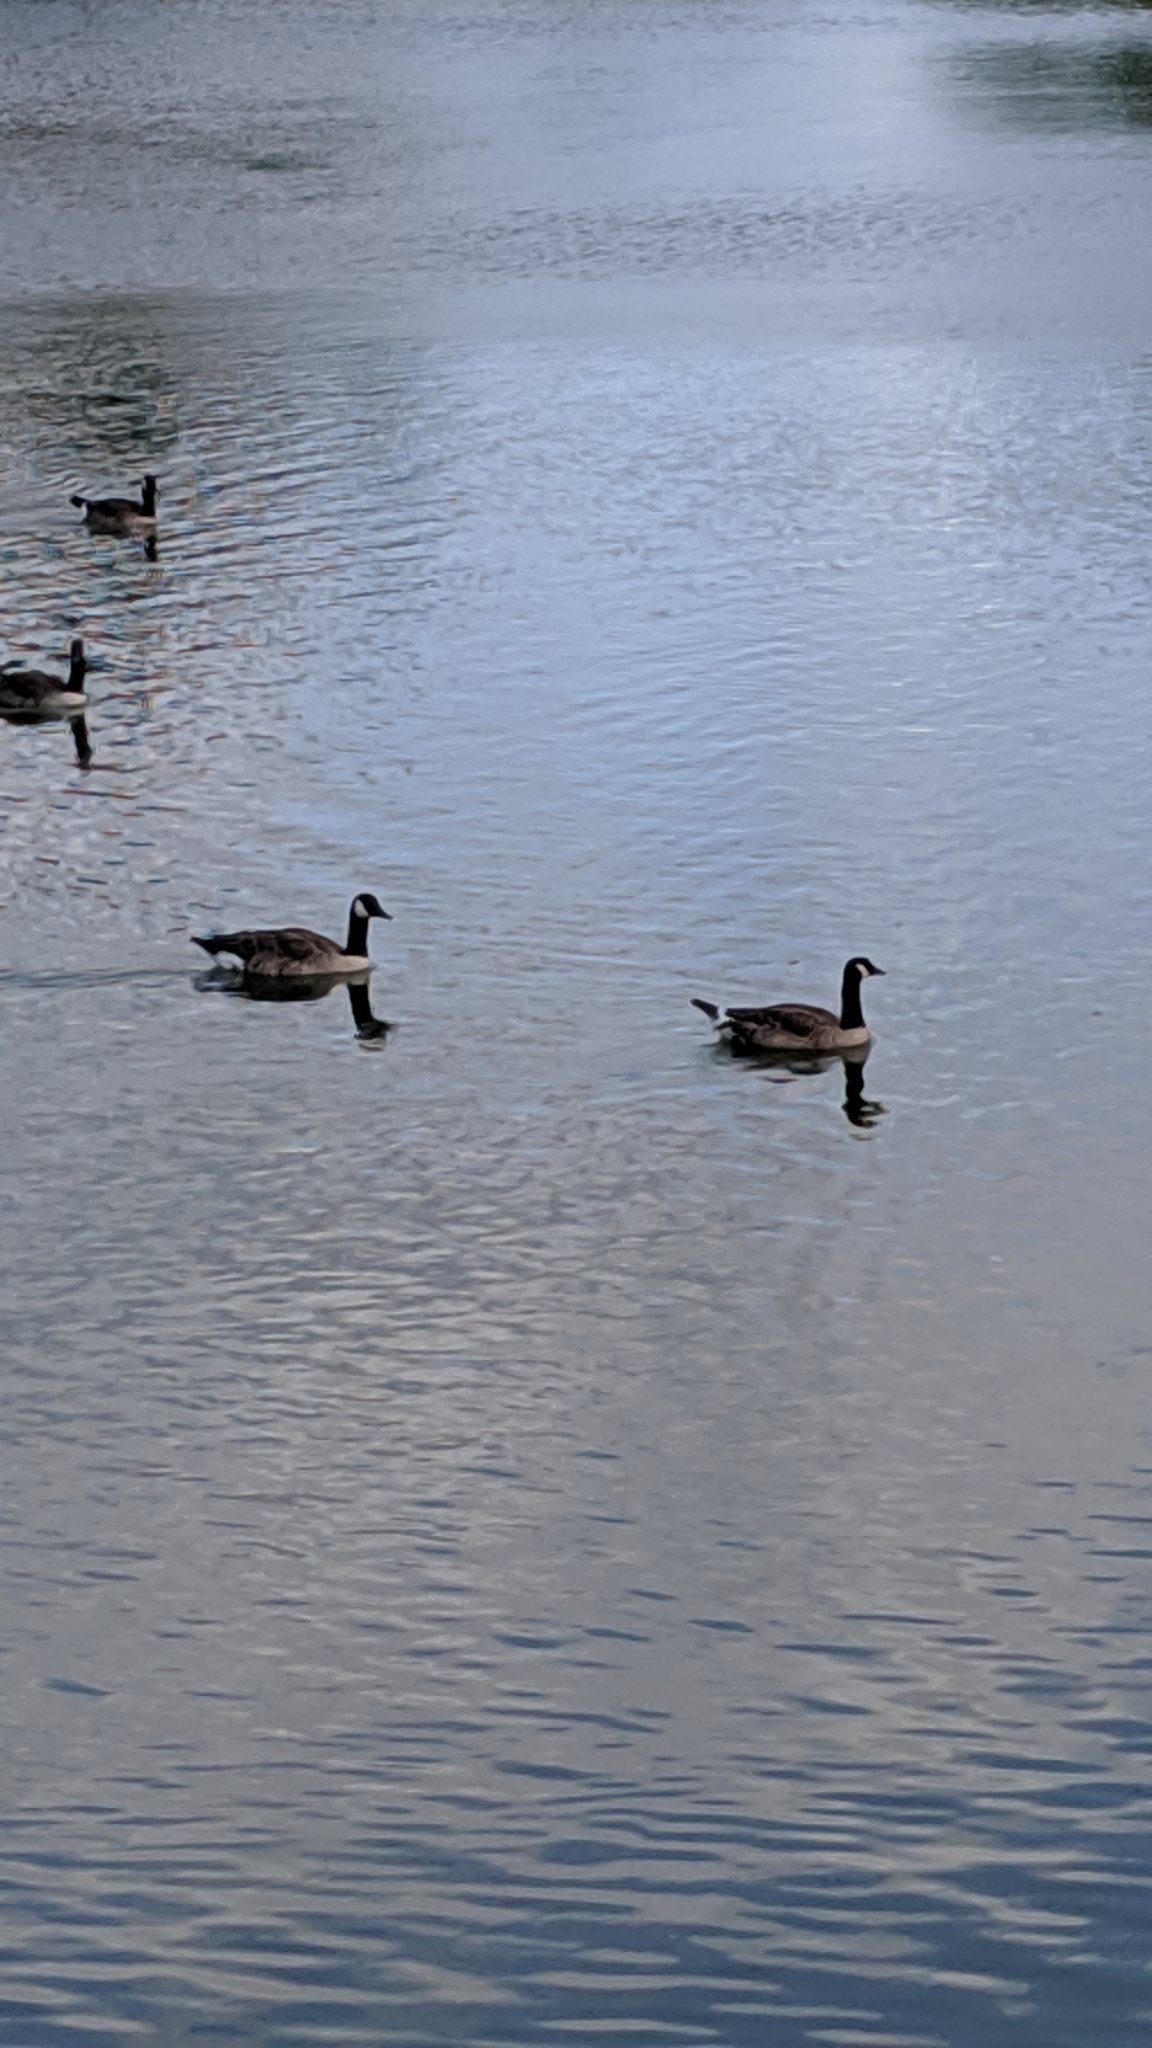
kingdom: Animalia
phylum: Chordata
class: Aves
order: Anseriformes
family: Anatidae
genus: Branta
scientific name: Branta canadensis
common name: Canada goose
